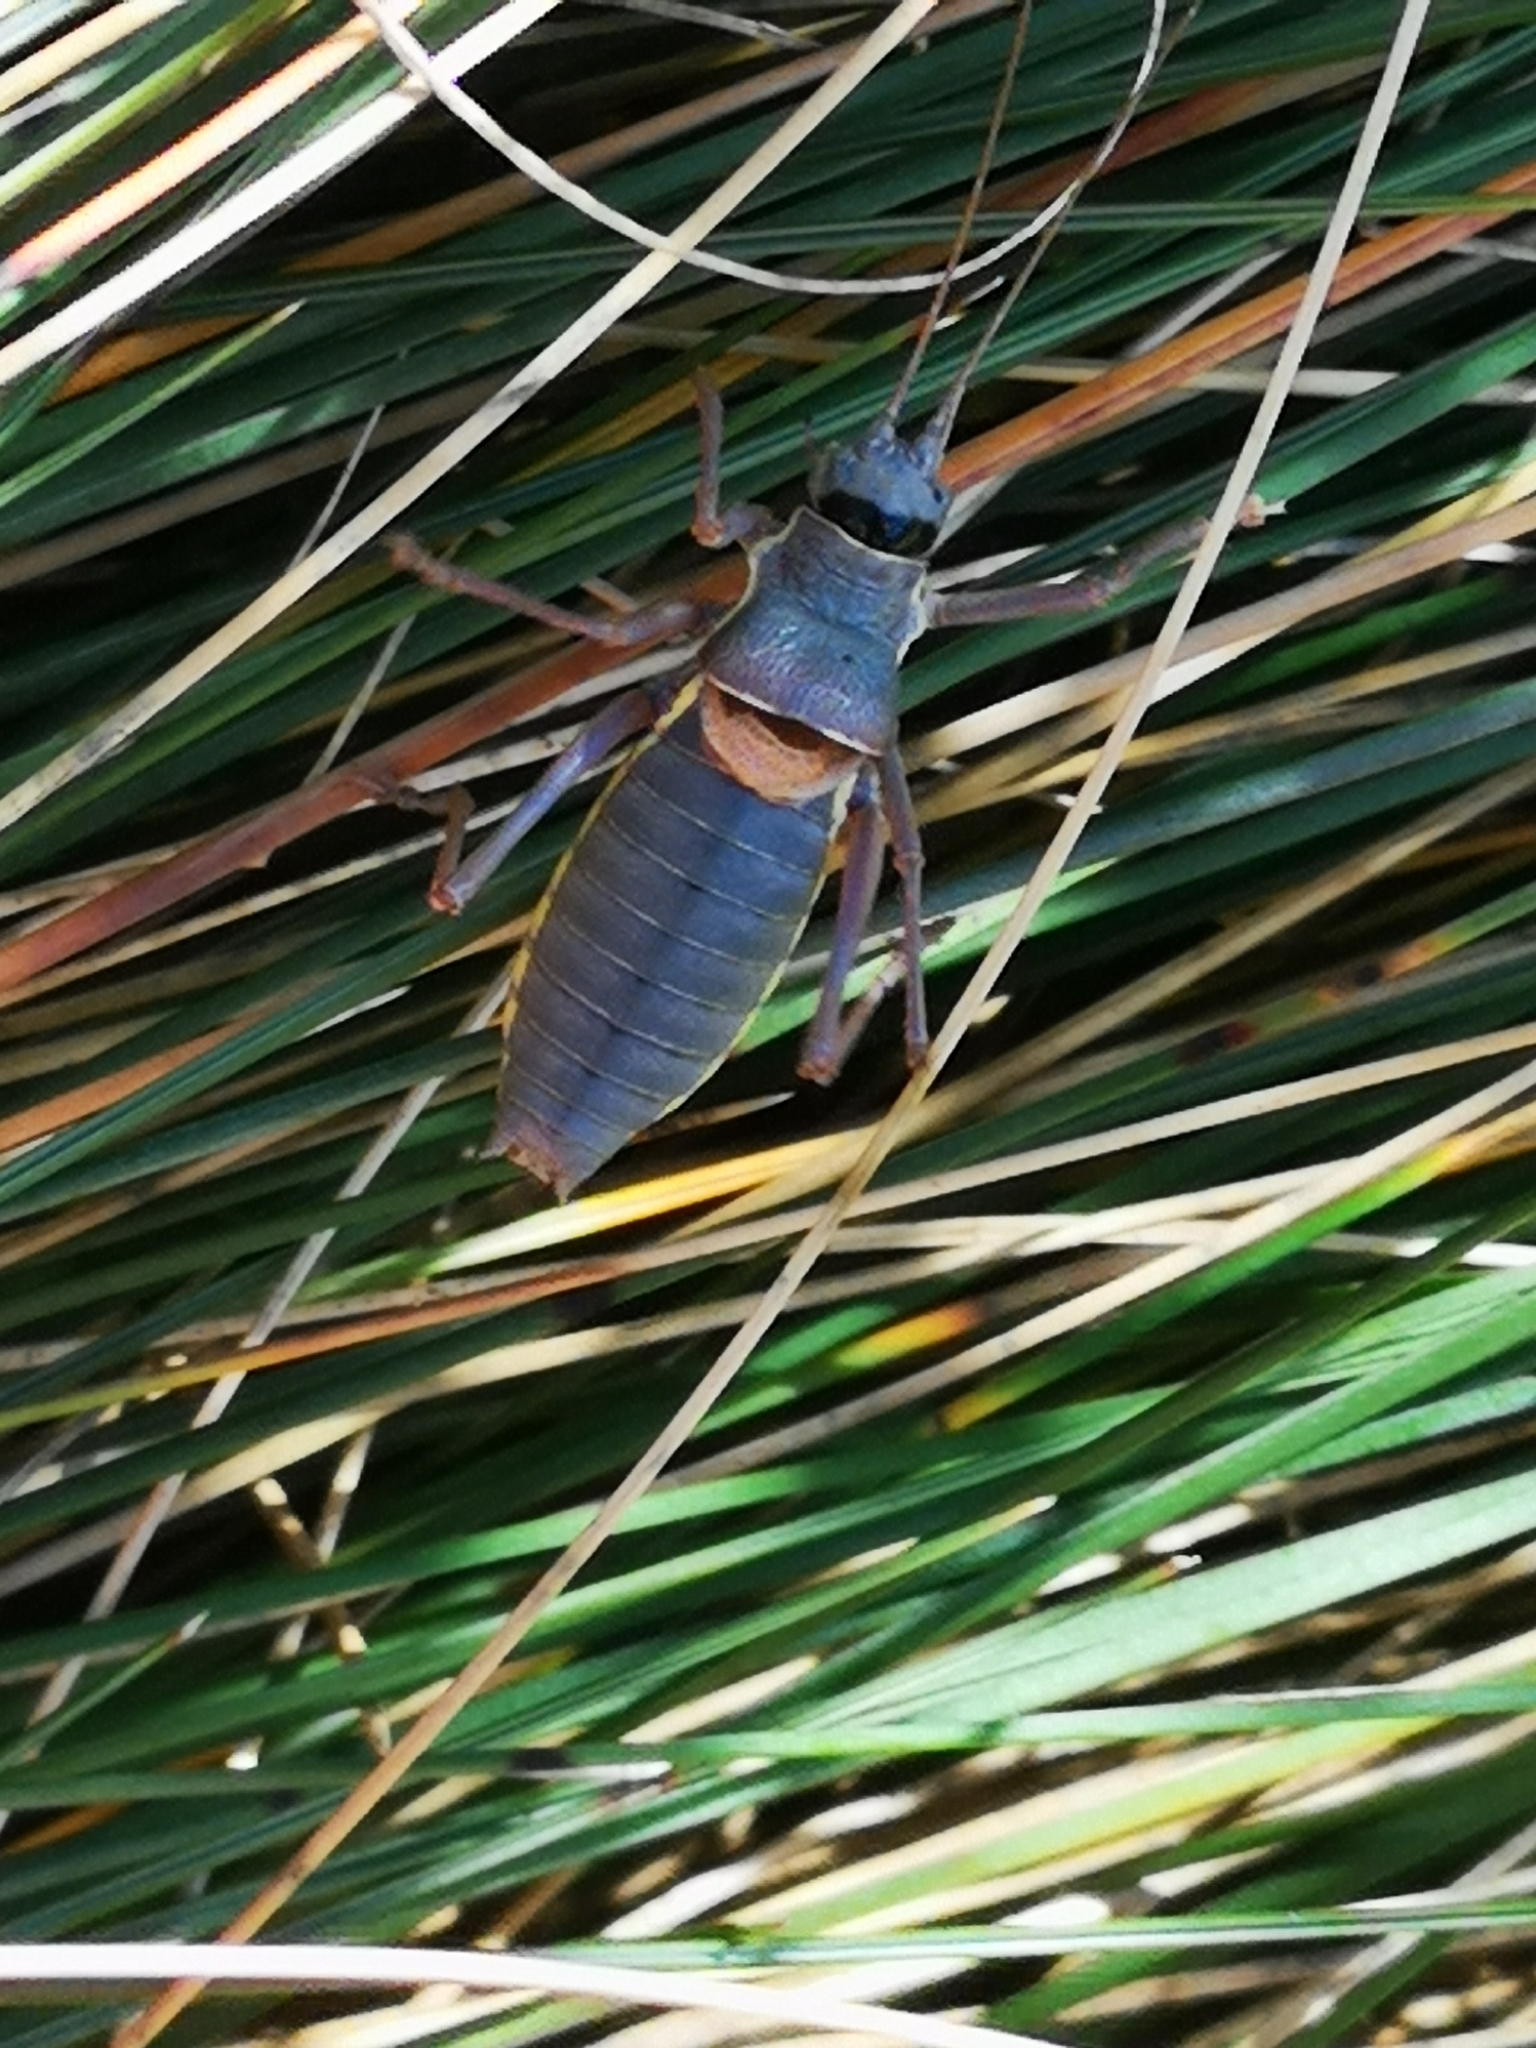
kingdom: Animalia
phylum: Arthropoda
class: Insecta
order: Orthoptera
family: Tettigoniidae
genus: Ephippiger
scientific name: Ephippiger ephippiger
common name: Eastern saddle bush-cricket
